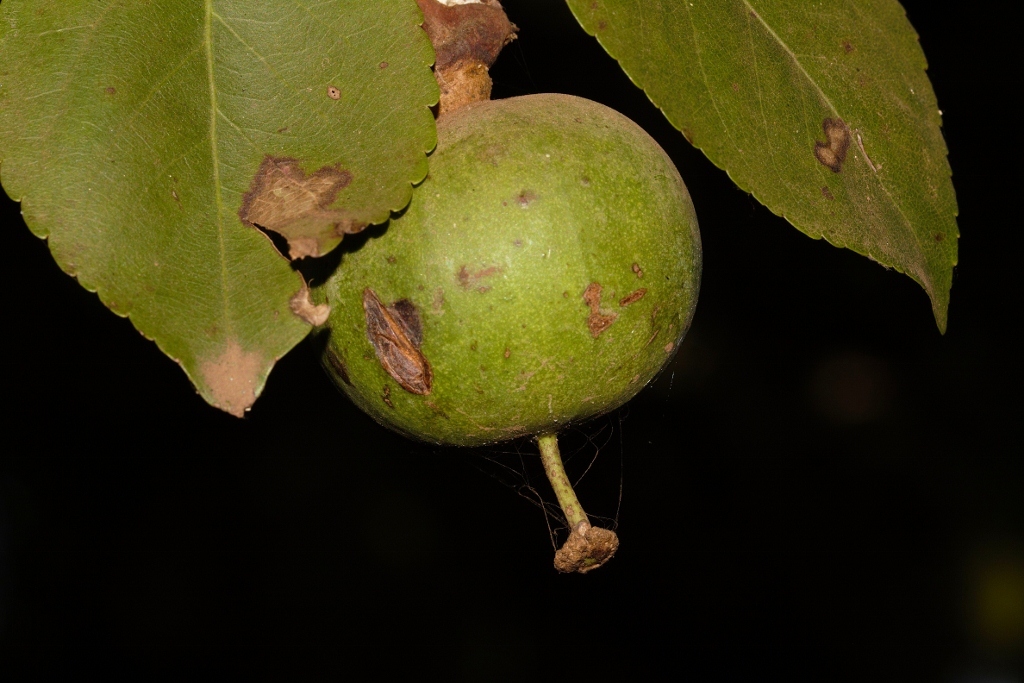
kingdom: Plantae
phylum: Tracheophyta
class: Magnoliopsida
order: Malpighiales
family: Salicaceae
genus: Oncoba
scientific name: Oncoba spinosa
